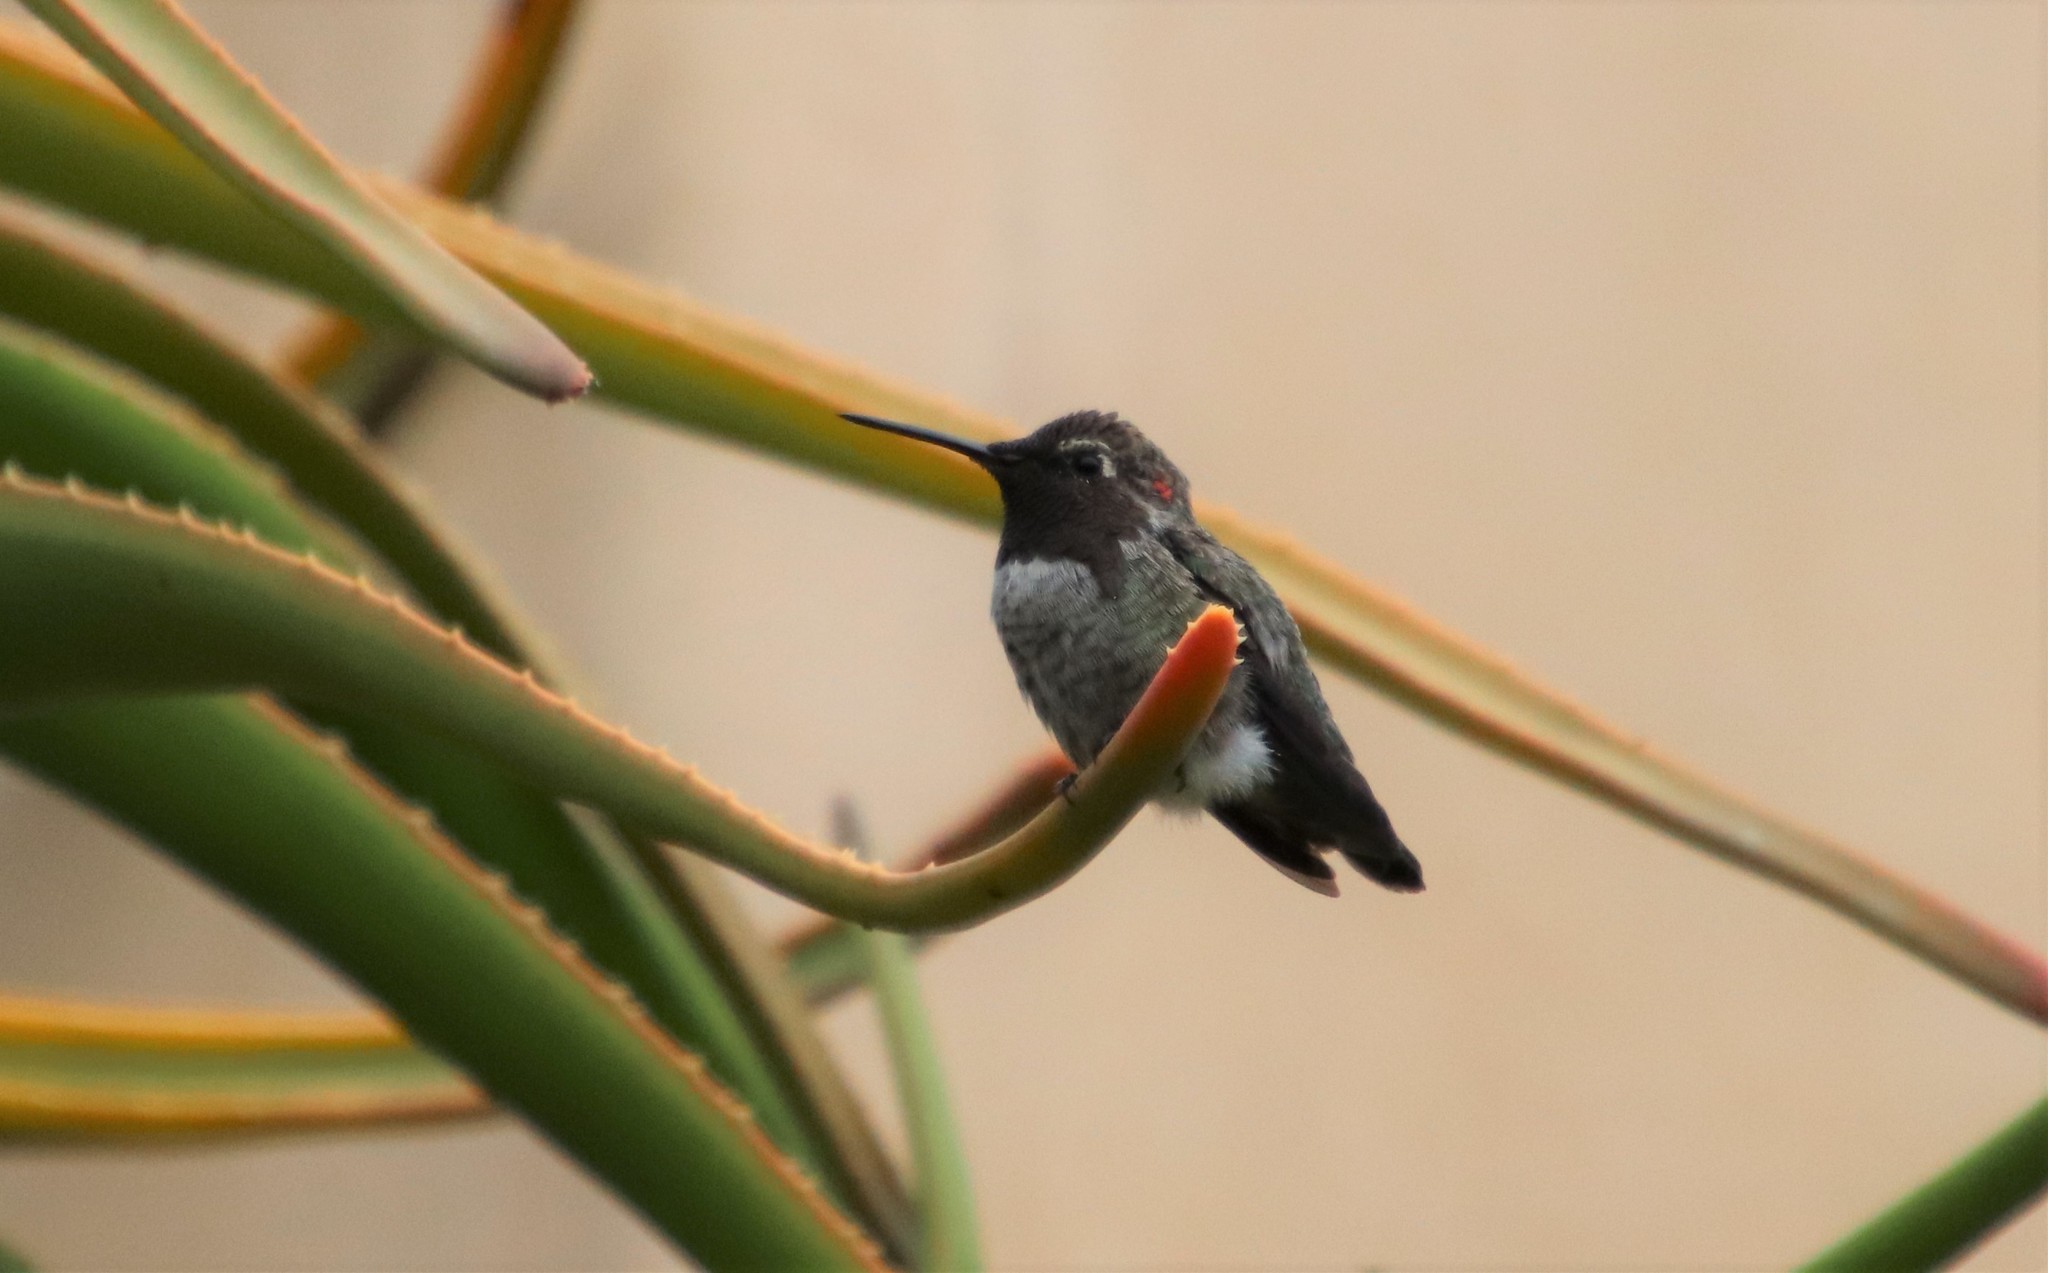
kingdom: Animalia
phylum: Chordata
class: Aves
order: Apodiformes
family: Trochilidae
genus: Calypte
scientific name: Calypte anna
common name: Anna's hummingbird
